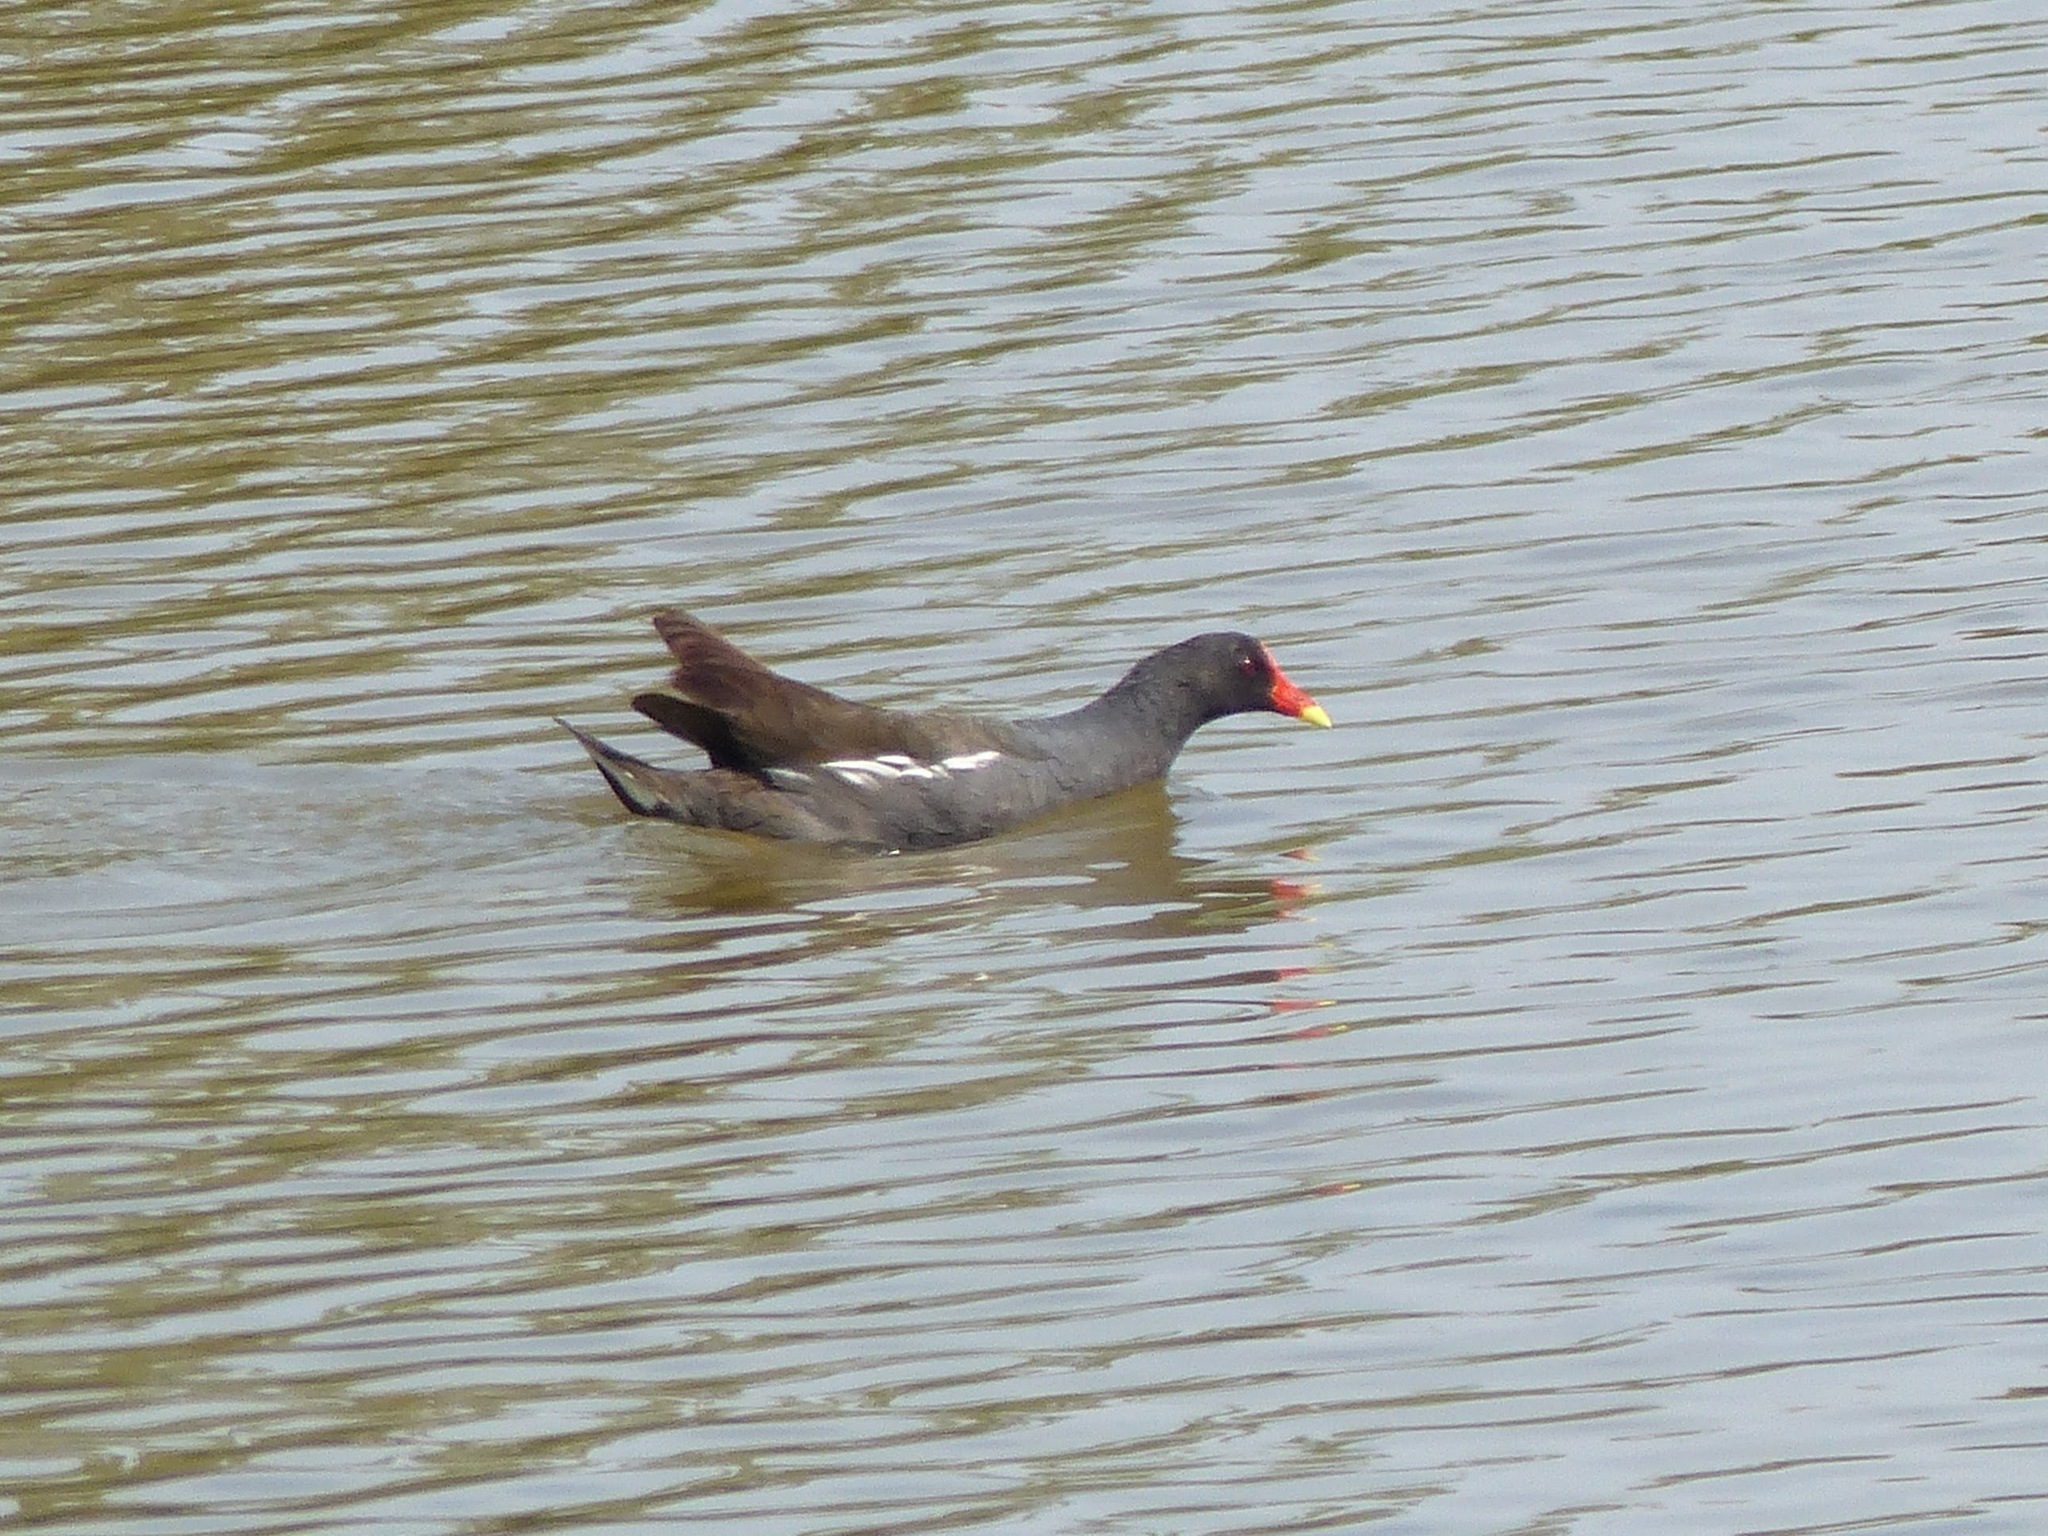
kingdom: Animalia
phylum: Chordata
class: Aves
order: Gruiformes
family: Rallidae
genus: Gallinula
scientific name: Gallinula chloropus
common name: Common moorhen
